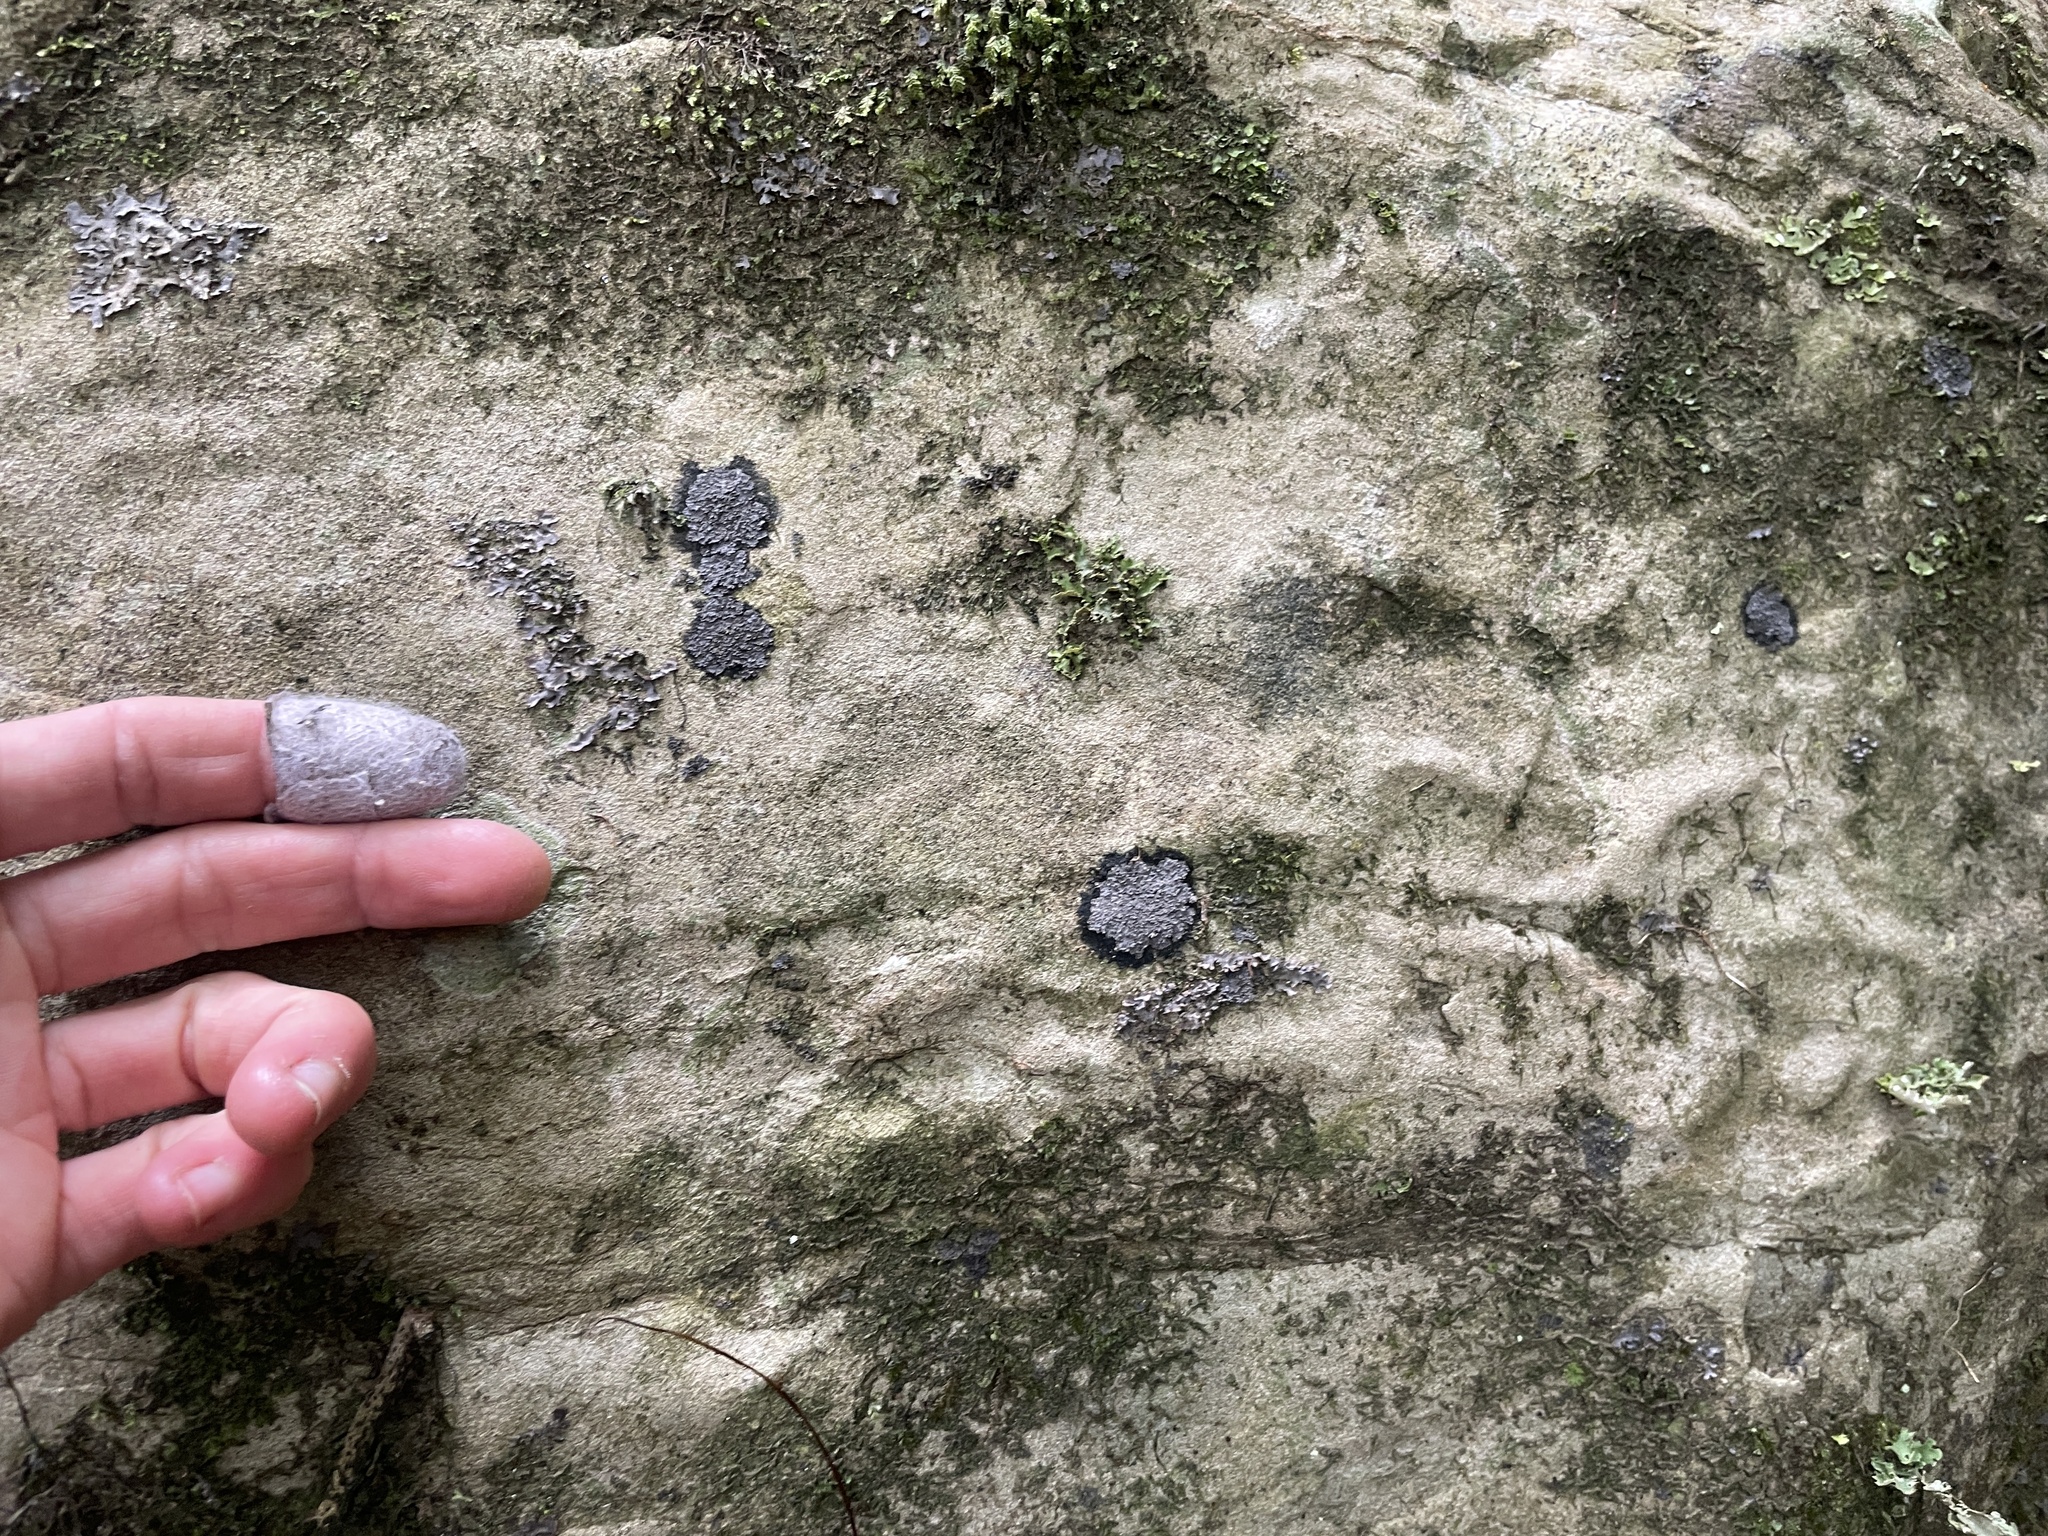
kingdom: Fungi
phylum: Ascomycota
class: Lecanoromycetes
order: Peltigerales
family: Pannariaceae
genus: Pannaria
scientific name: Pannaria immixta
